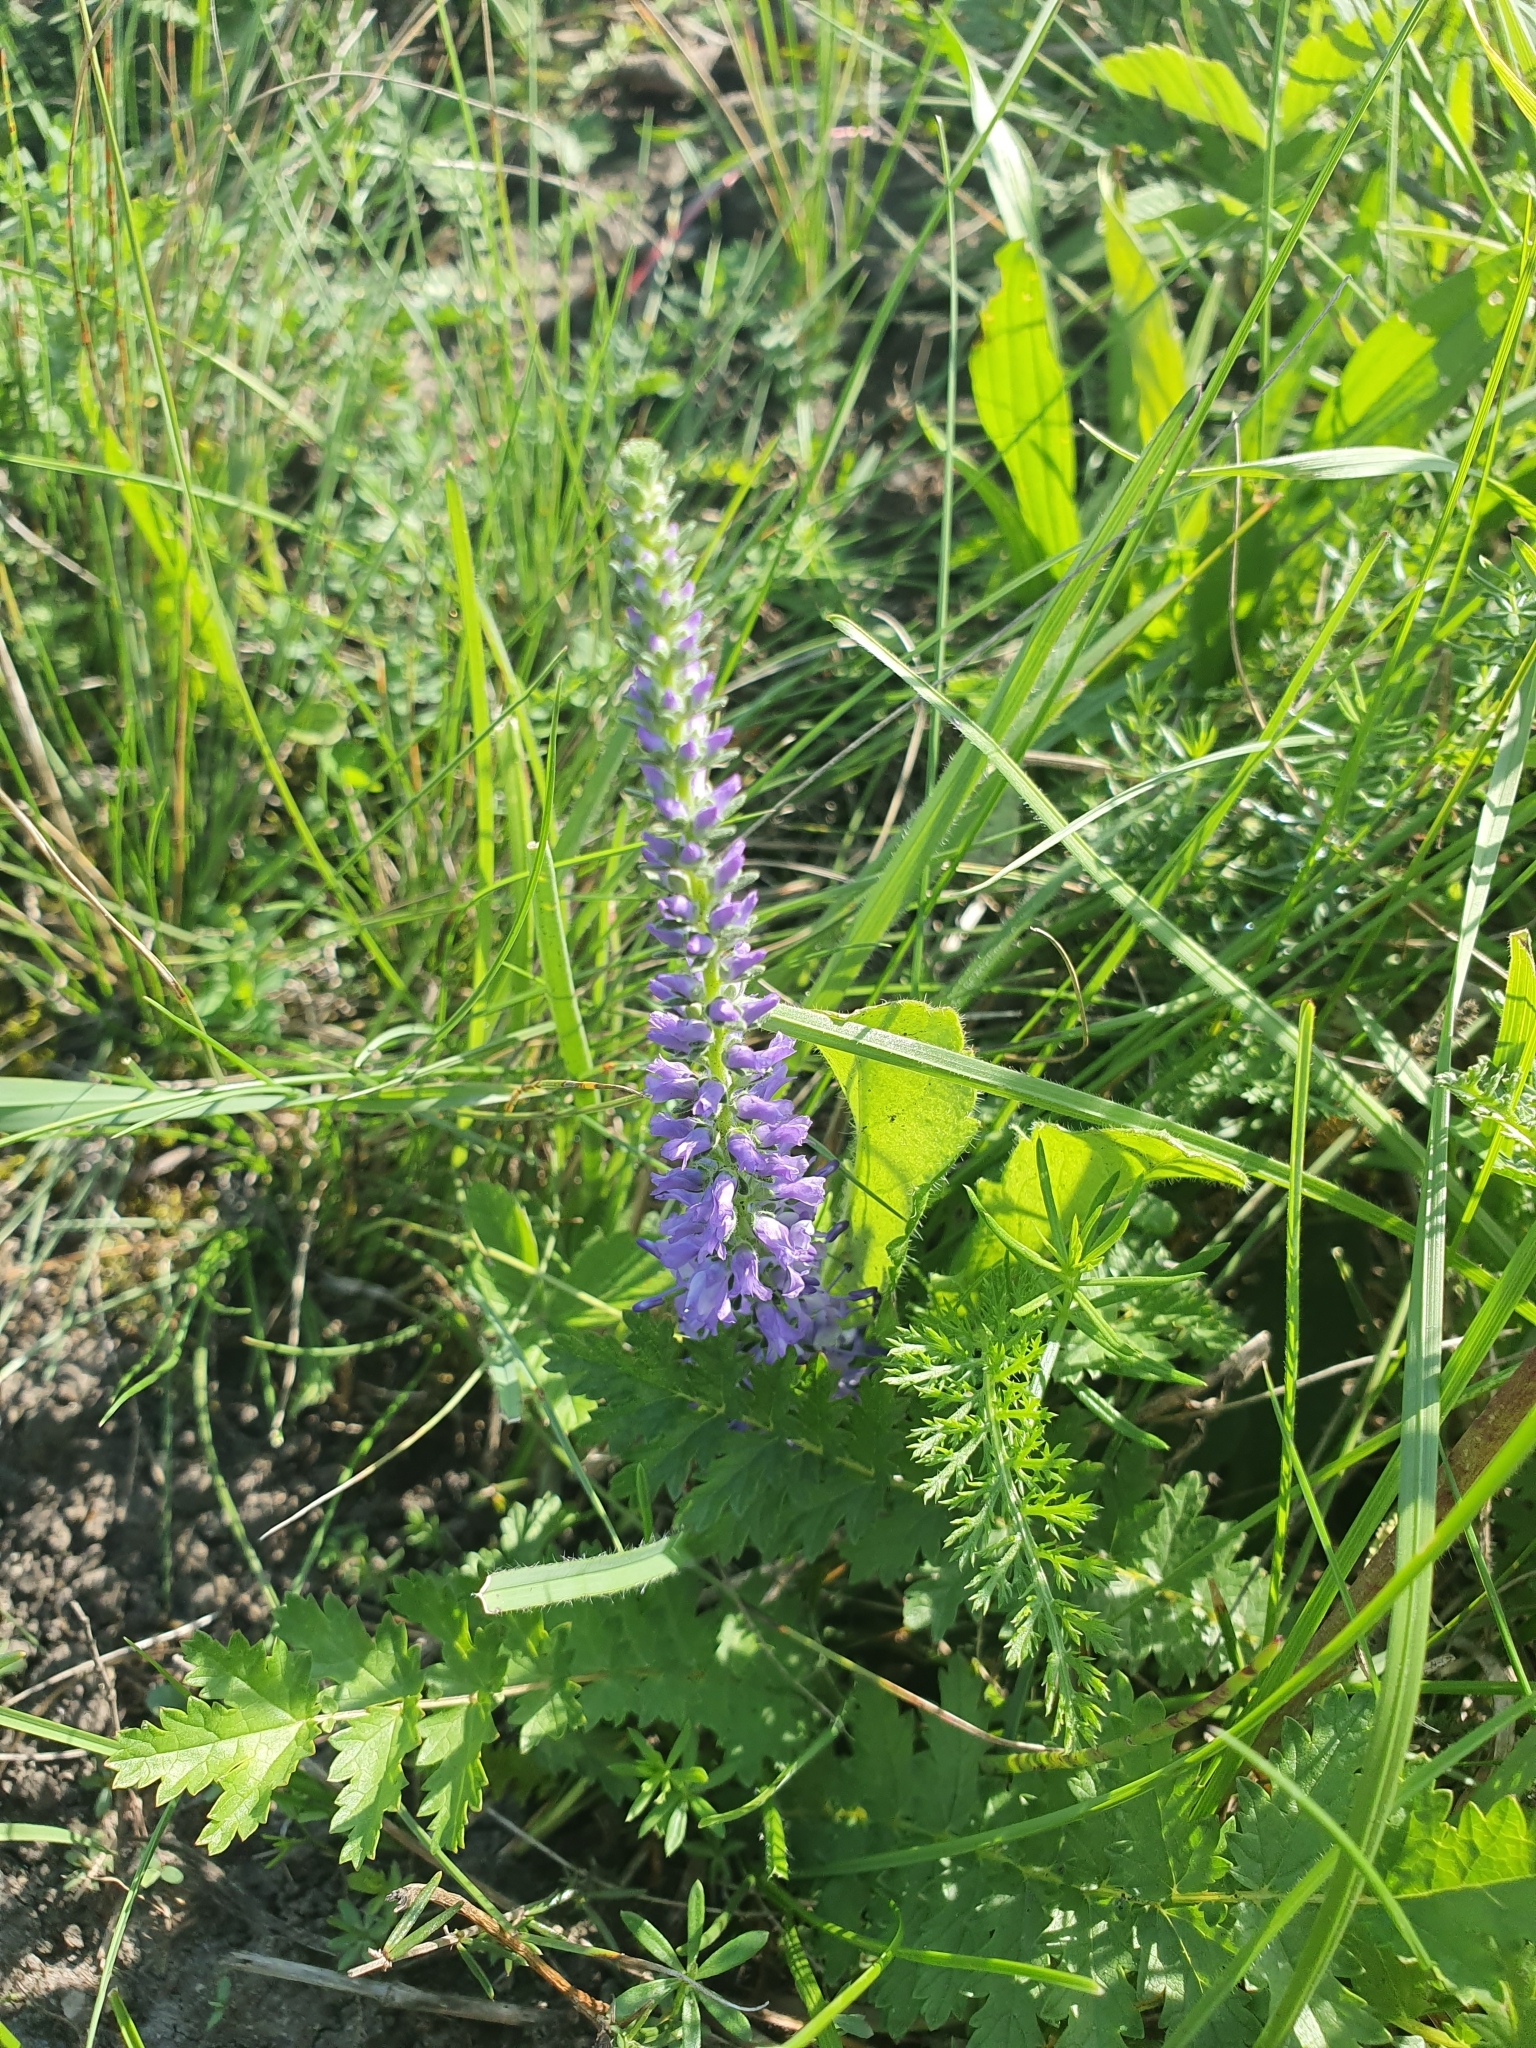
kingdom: Plantae
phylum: Tracheophyta
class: Magnoliopsida
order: Lamiales
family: Plantaginaceae
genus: Veronica
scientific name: Veronica spicata
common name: Spiked speedwell
